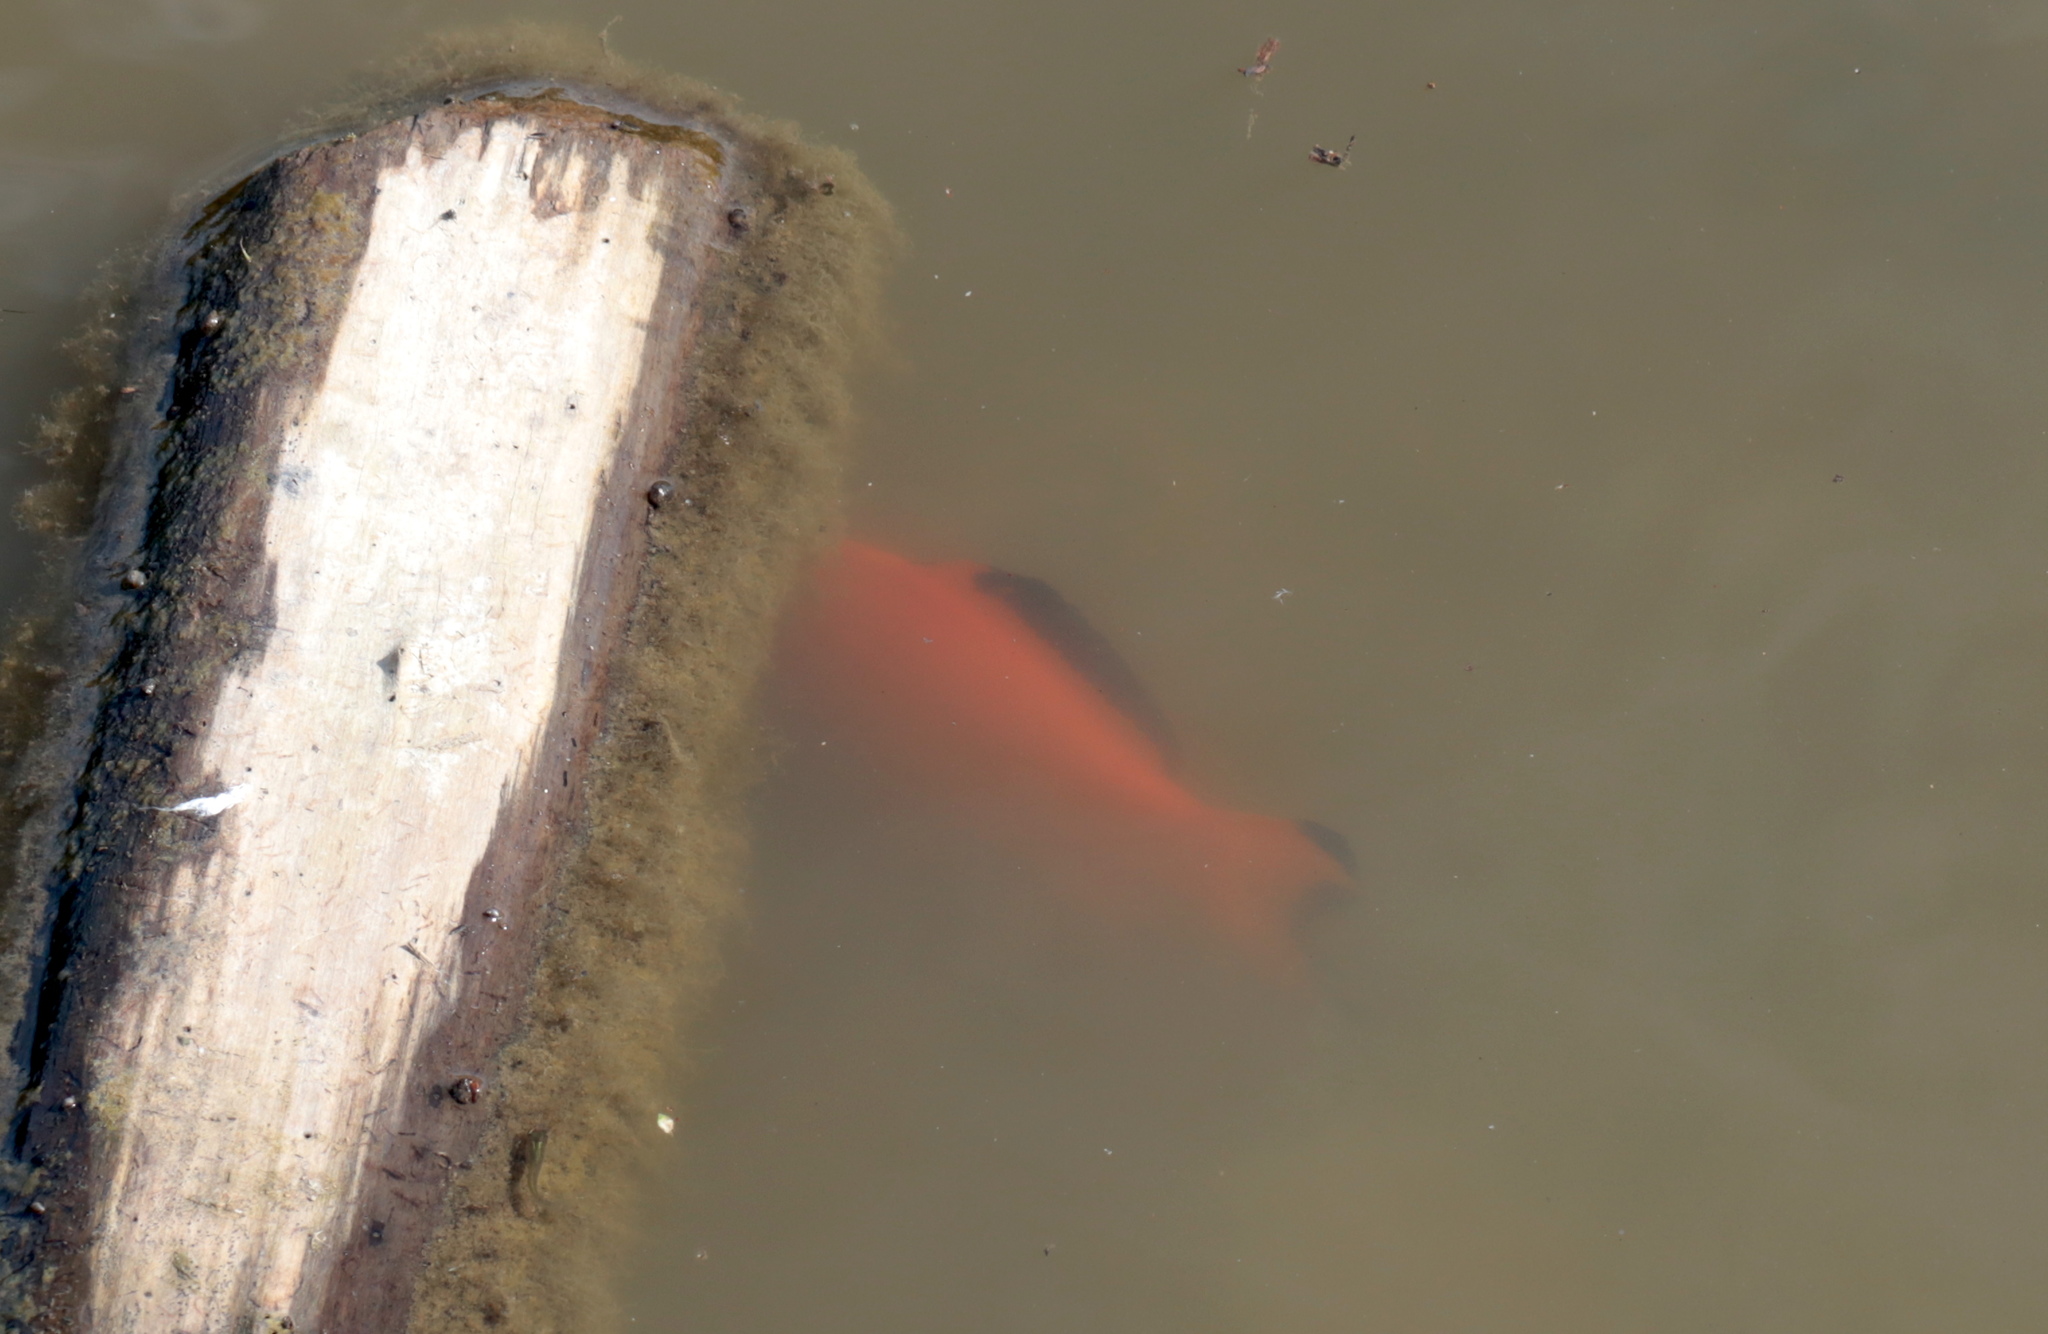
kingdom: Animalia
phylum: Chordata
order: Cypriniformes
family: Cyprinidae
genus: Carassius
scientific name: Carassius auratus
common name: Goldfish
